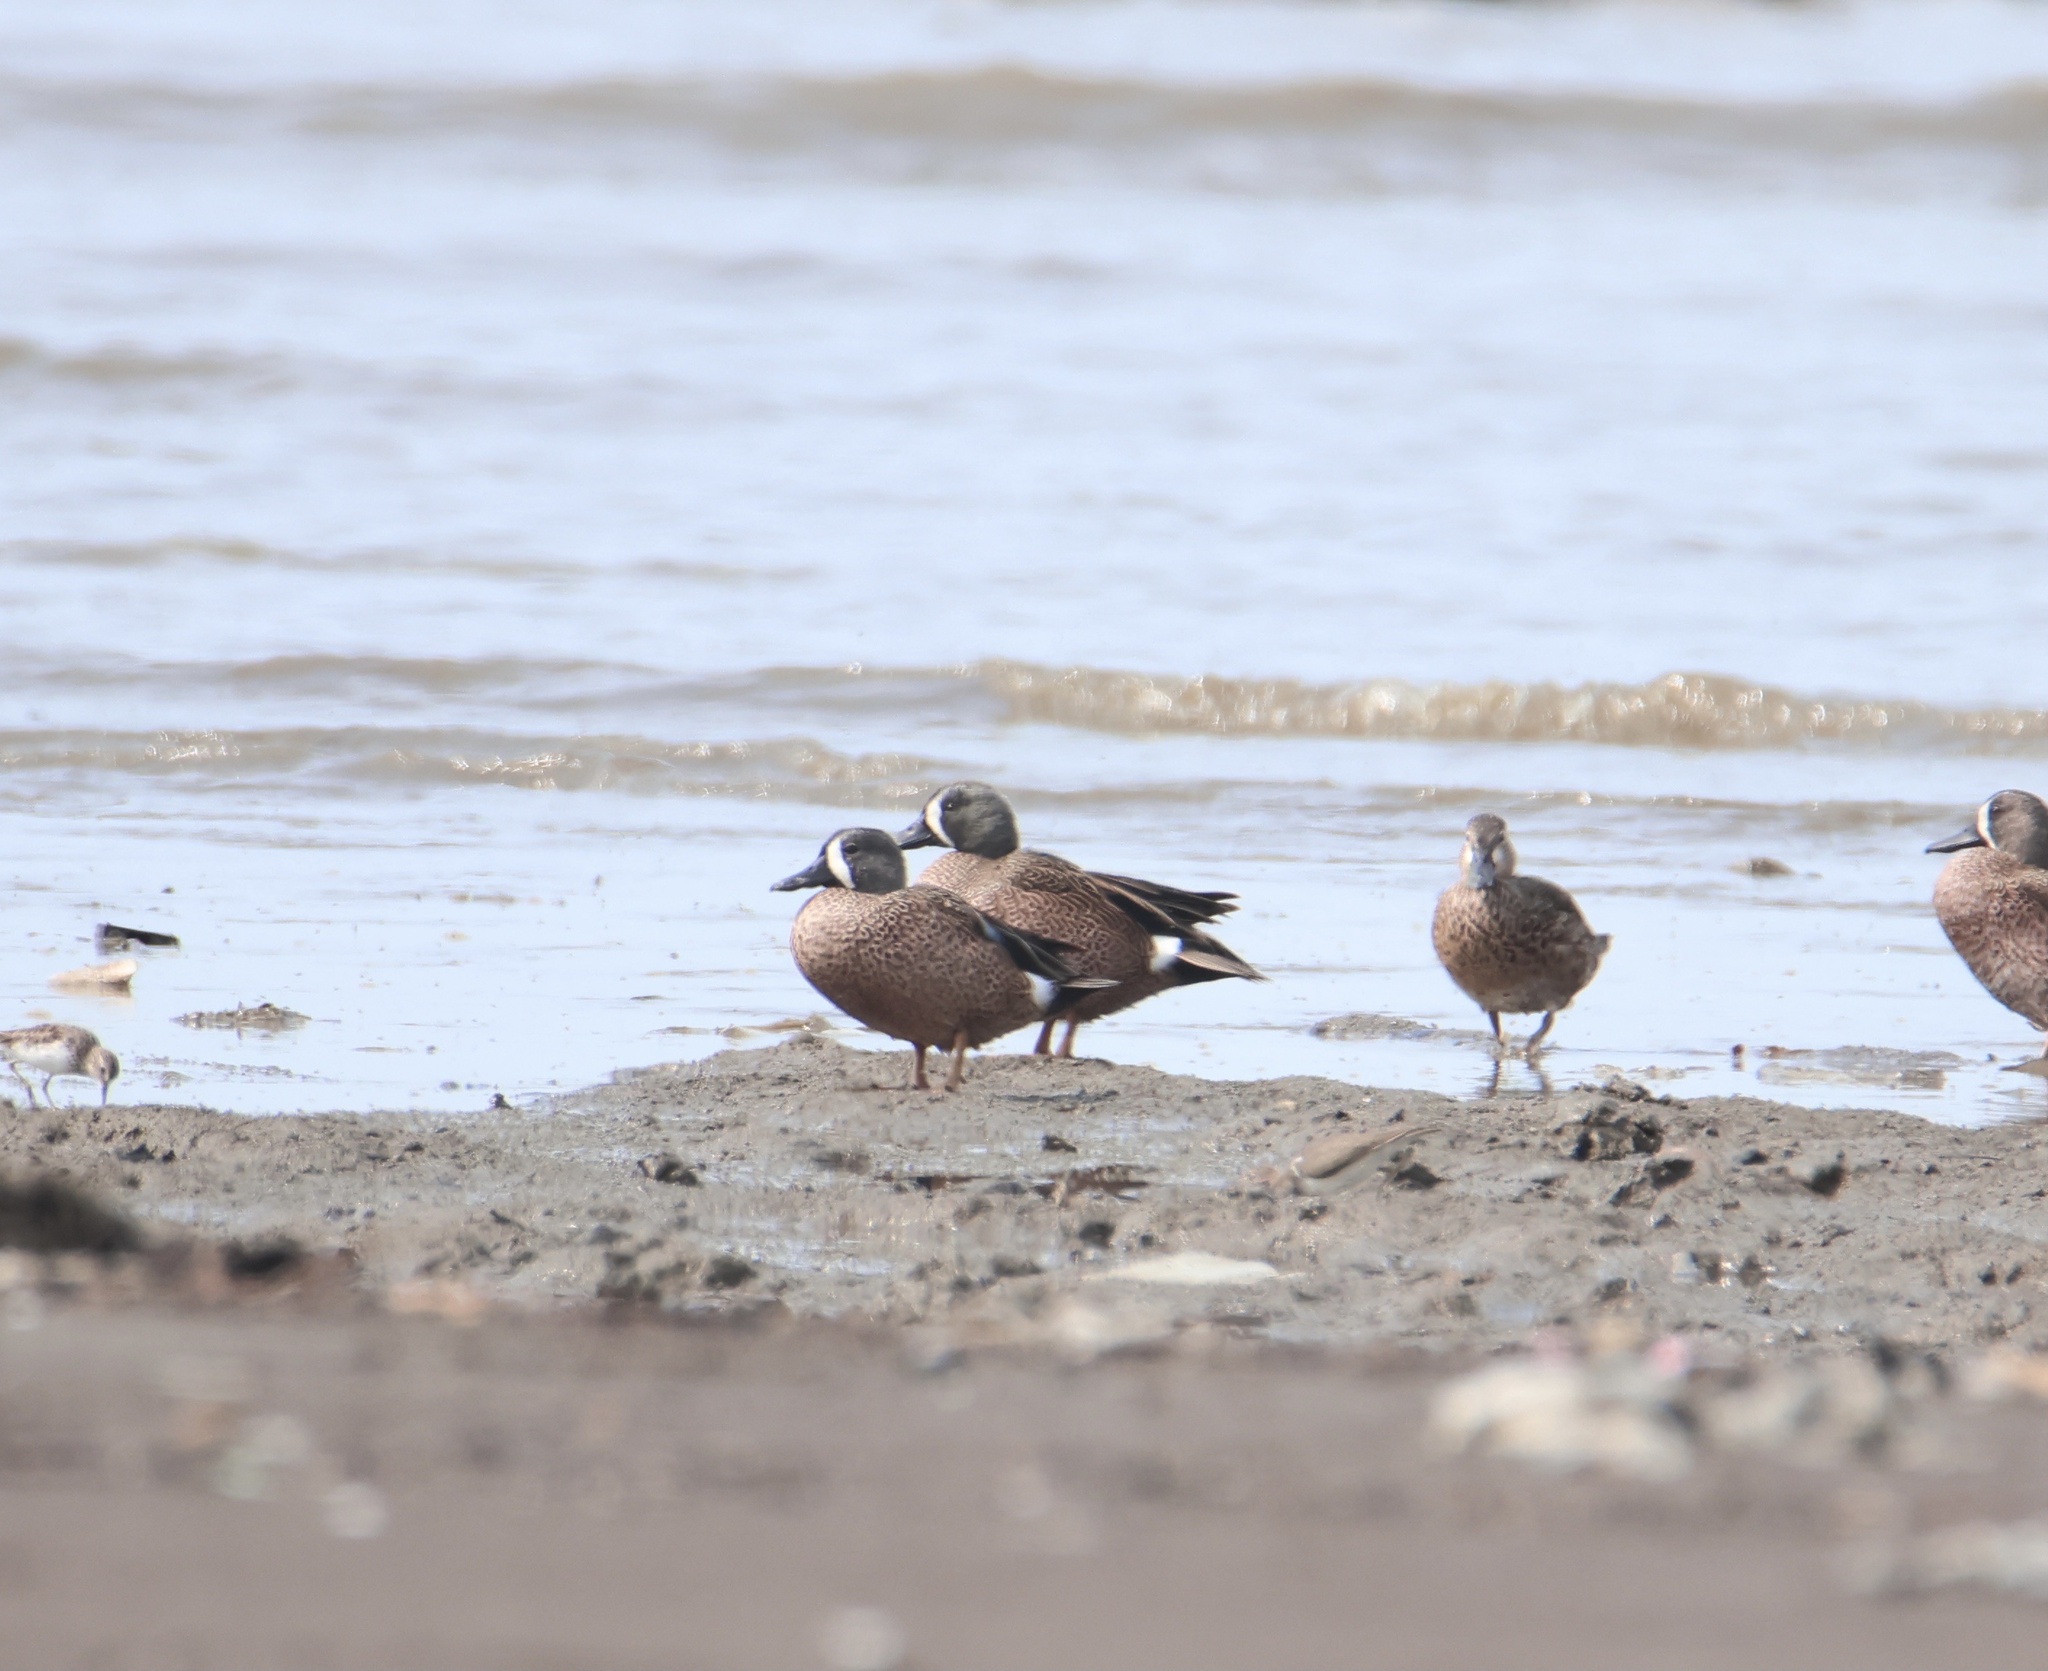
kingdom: Animalia
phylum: Chordata
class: Aves
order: Anseriformes
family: Anatidae
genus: Spatula
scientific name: Spatula discors
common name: Blue-winged teal
